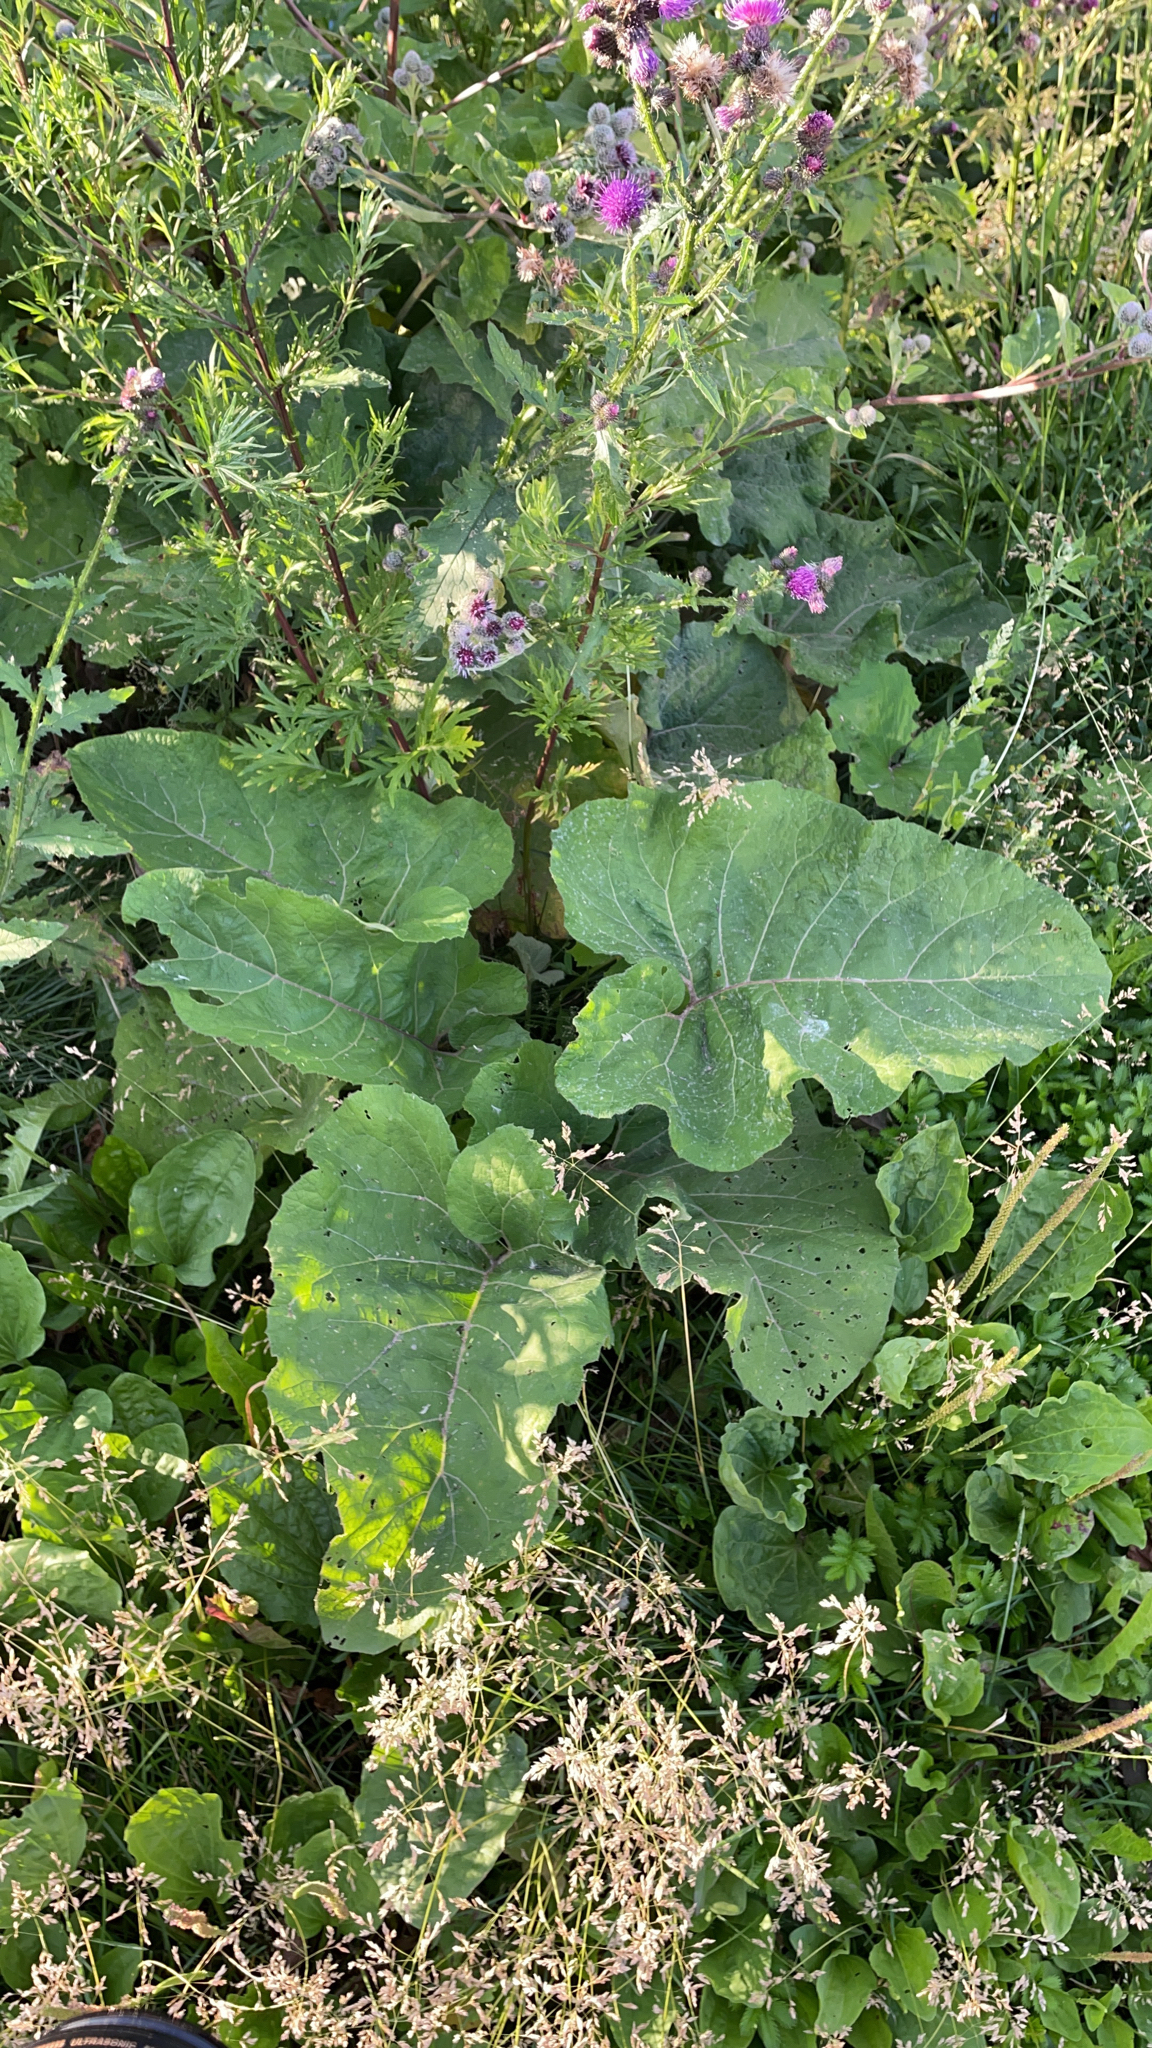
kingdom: Plantae
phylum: Tracheophyta
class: Magnoliopsida
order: Asterales
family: Asteraceae
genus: Arctium
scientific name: Arctium tomentosum
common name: Woolly burdock
